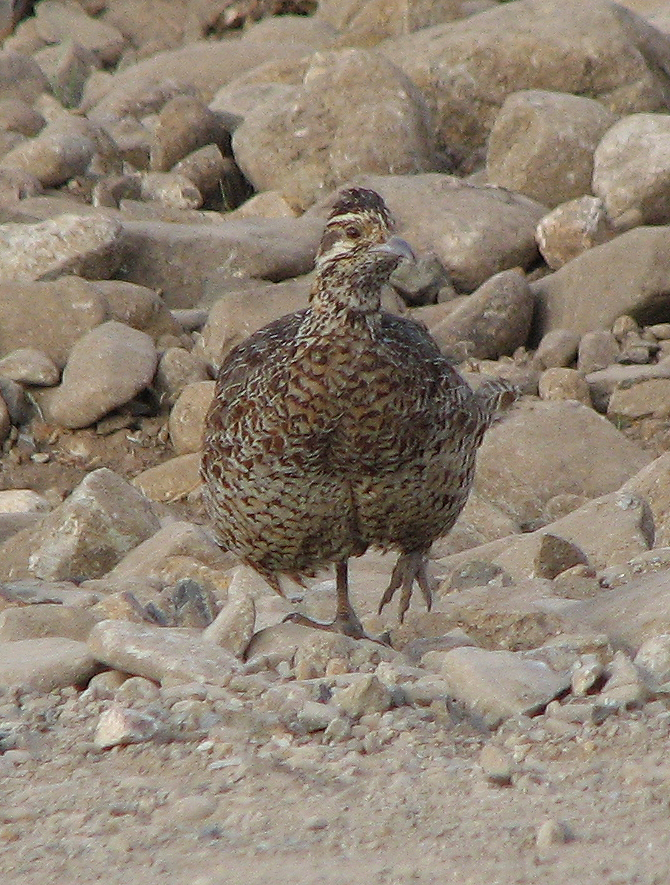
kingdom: Animalia
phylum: Chordata
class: Aves
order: Galliformes
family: Phasianidae
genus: Scleroptila
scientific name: Scleroptila psilolaema
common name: Moorland francolin
